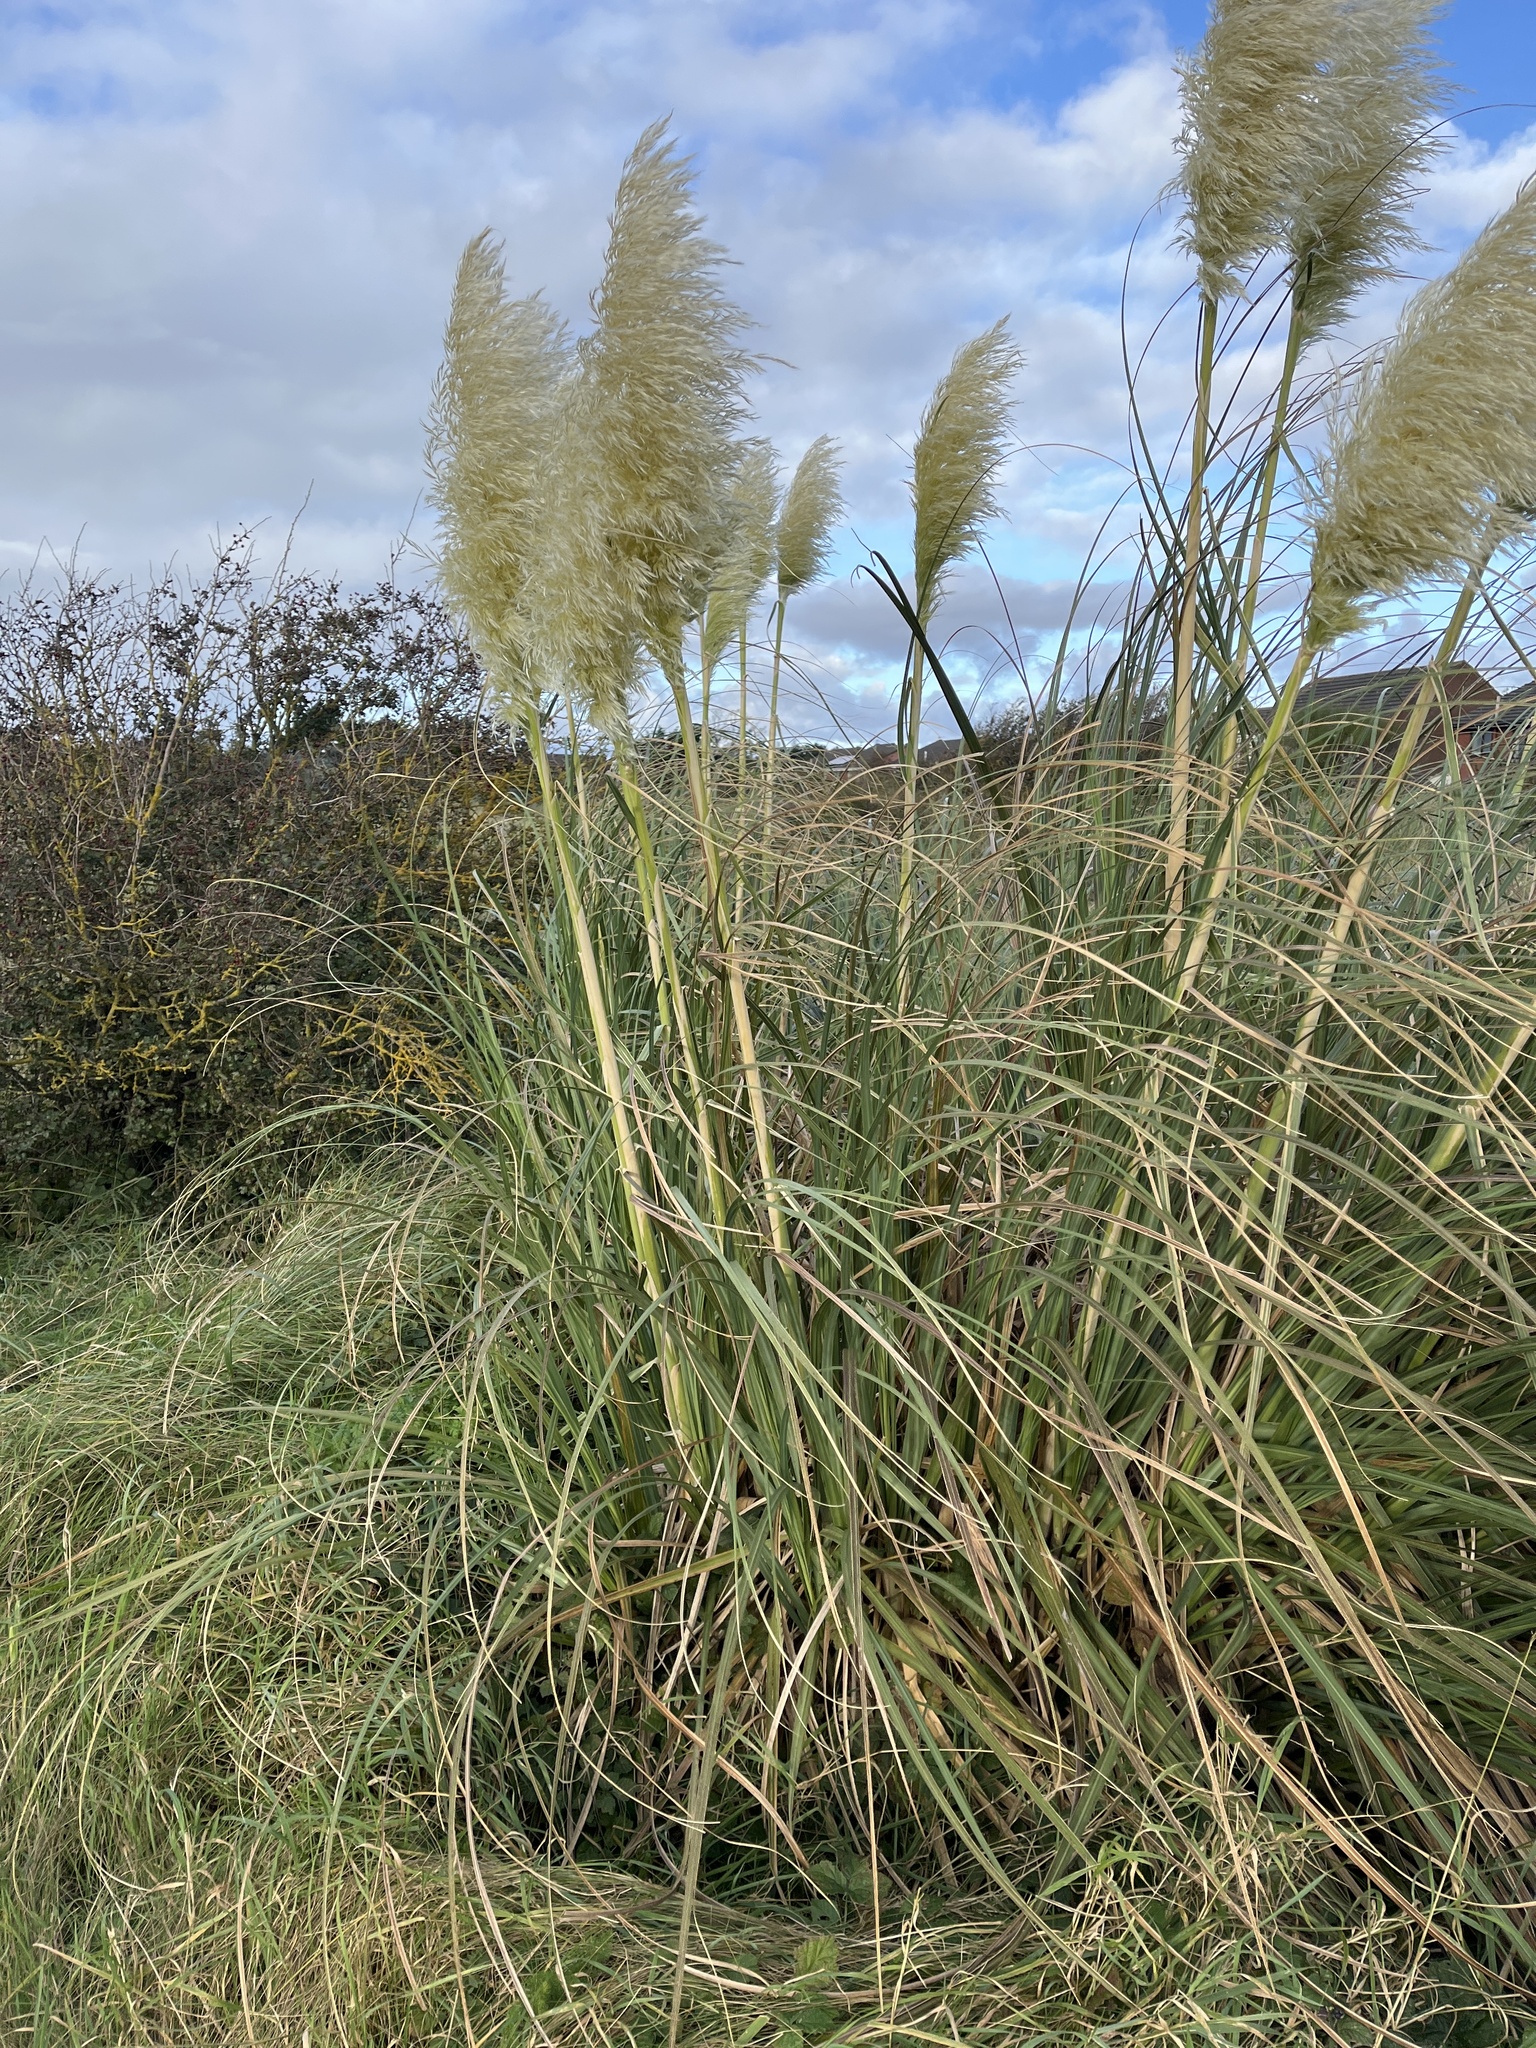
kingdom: Plantae
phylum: Tracheophyta
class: Liliopsida
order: Poales
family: Poaceae
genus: Cortaderia
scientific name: Cortaderia selloana
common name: Uruguayan pampas grass
